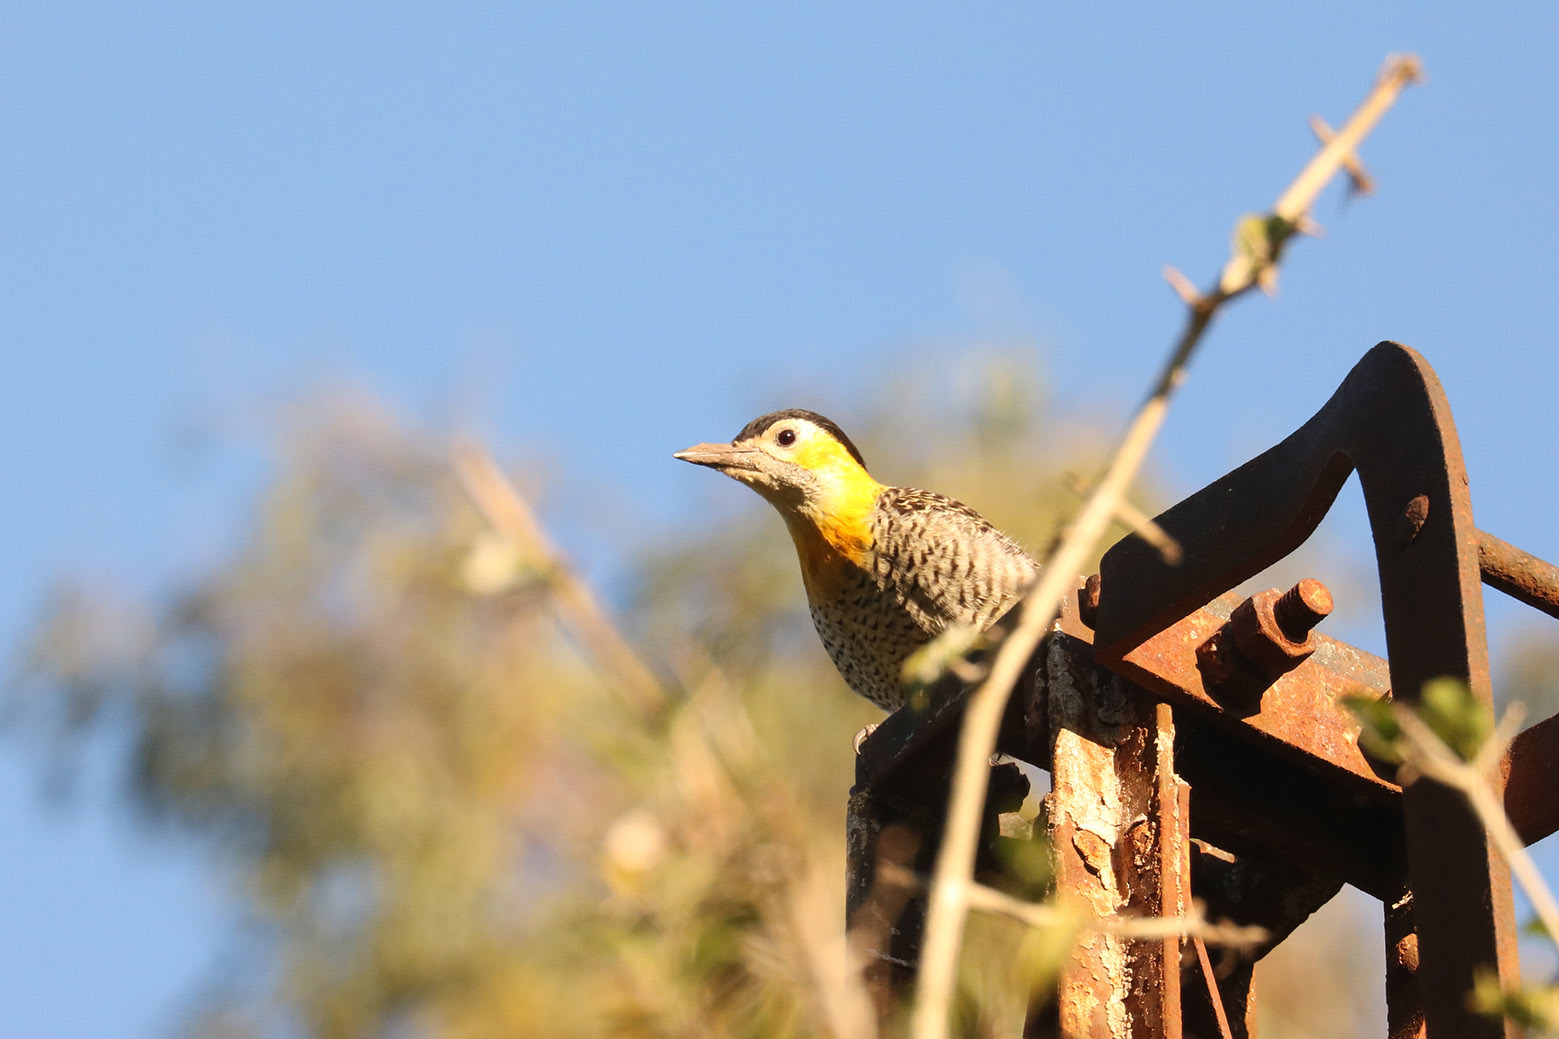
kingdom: Animalia
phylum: Chordata
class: Aves
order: Piciformes
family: Picidae
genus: Colaptes
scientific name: Colaptes campestris
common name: Campo flicker
